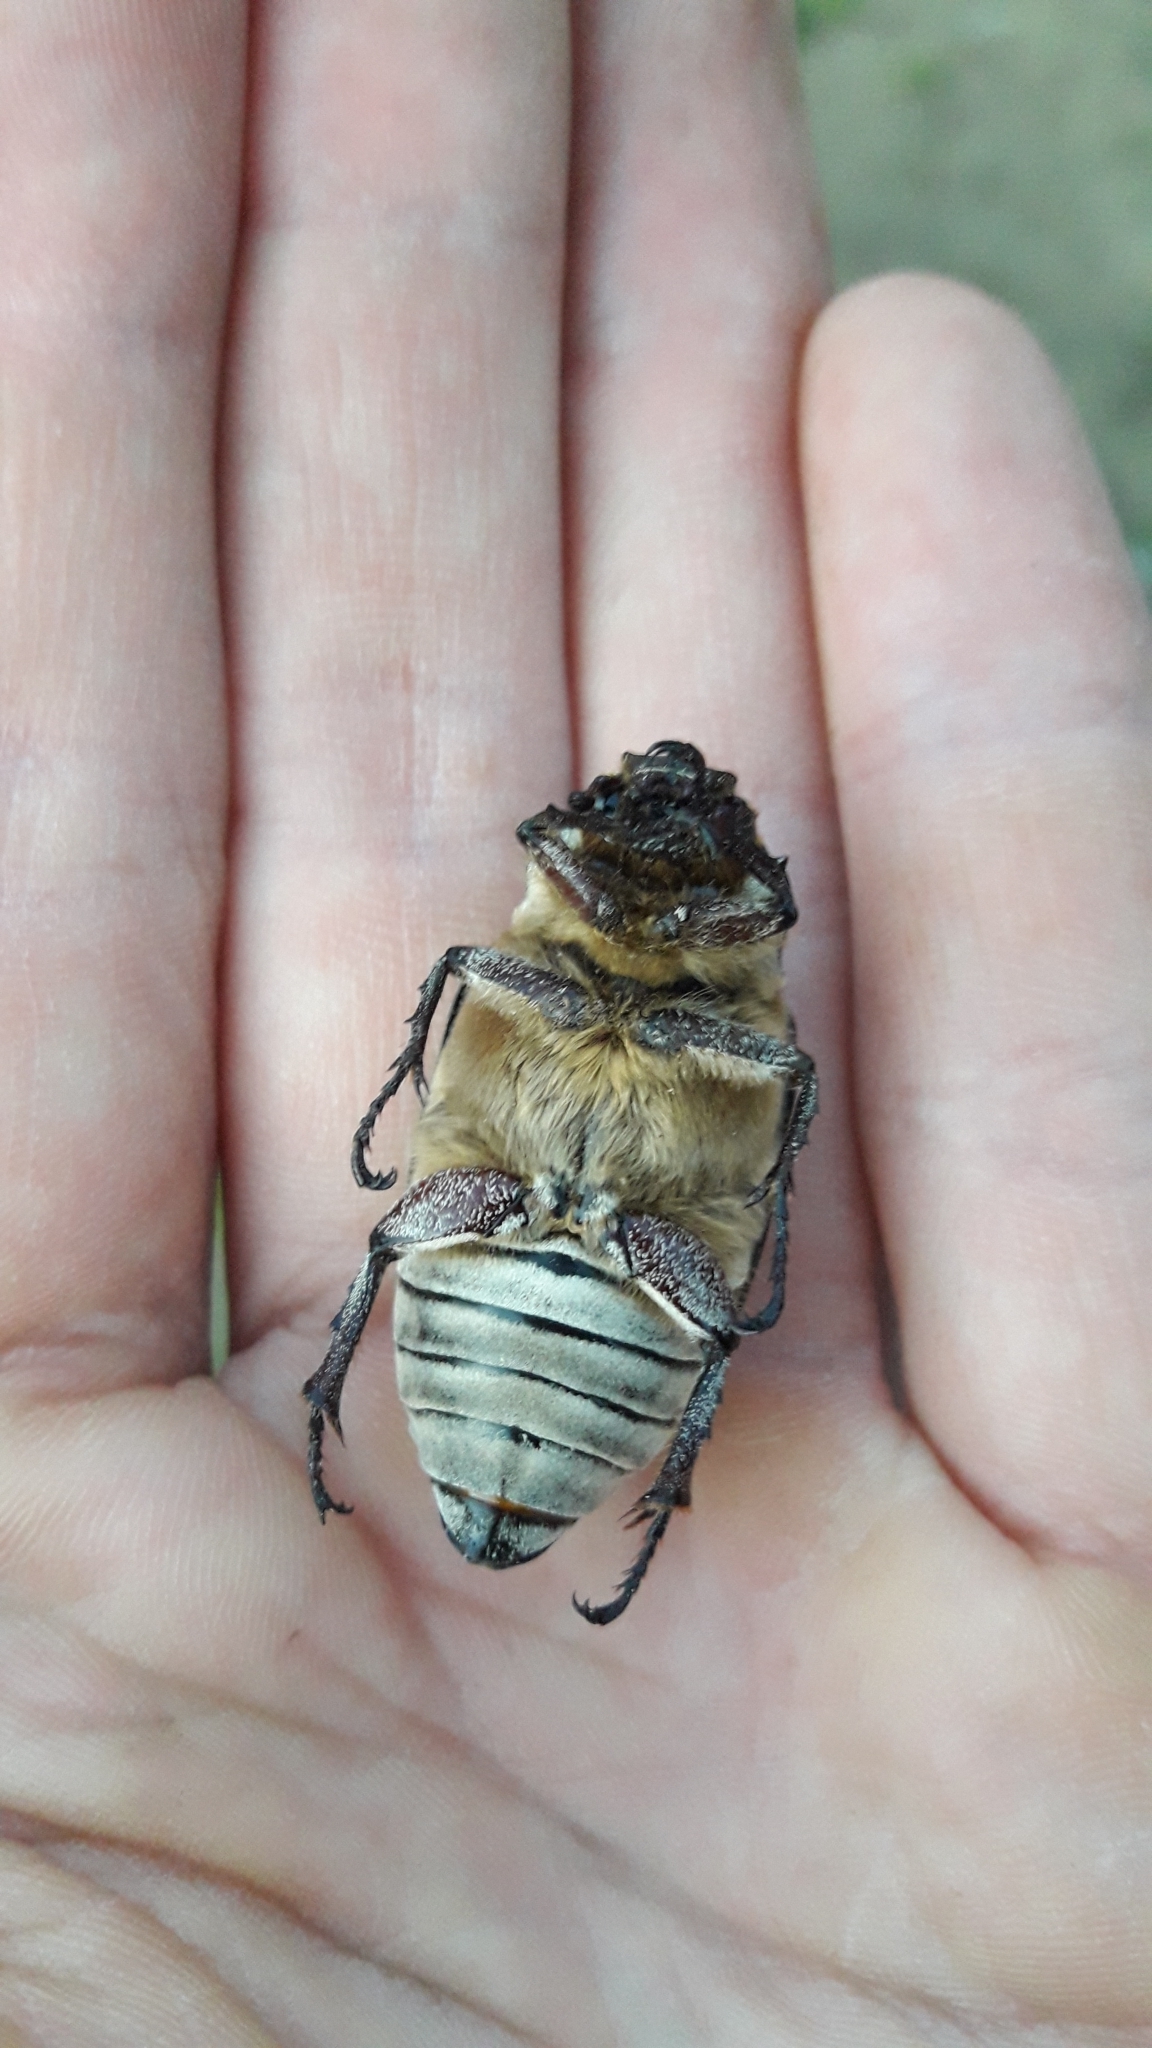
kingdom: Animalia
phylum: Arthropoda
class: Insecta
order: Coleoptera
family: Scarabaeidae
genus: Polyphylla
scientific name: Polyphylla fullo
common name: Pine chafer
